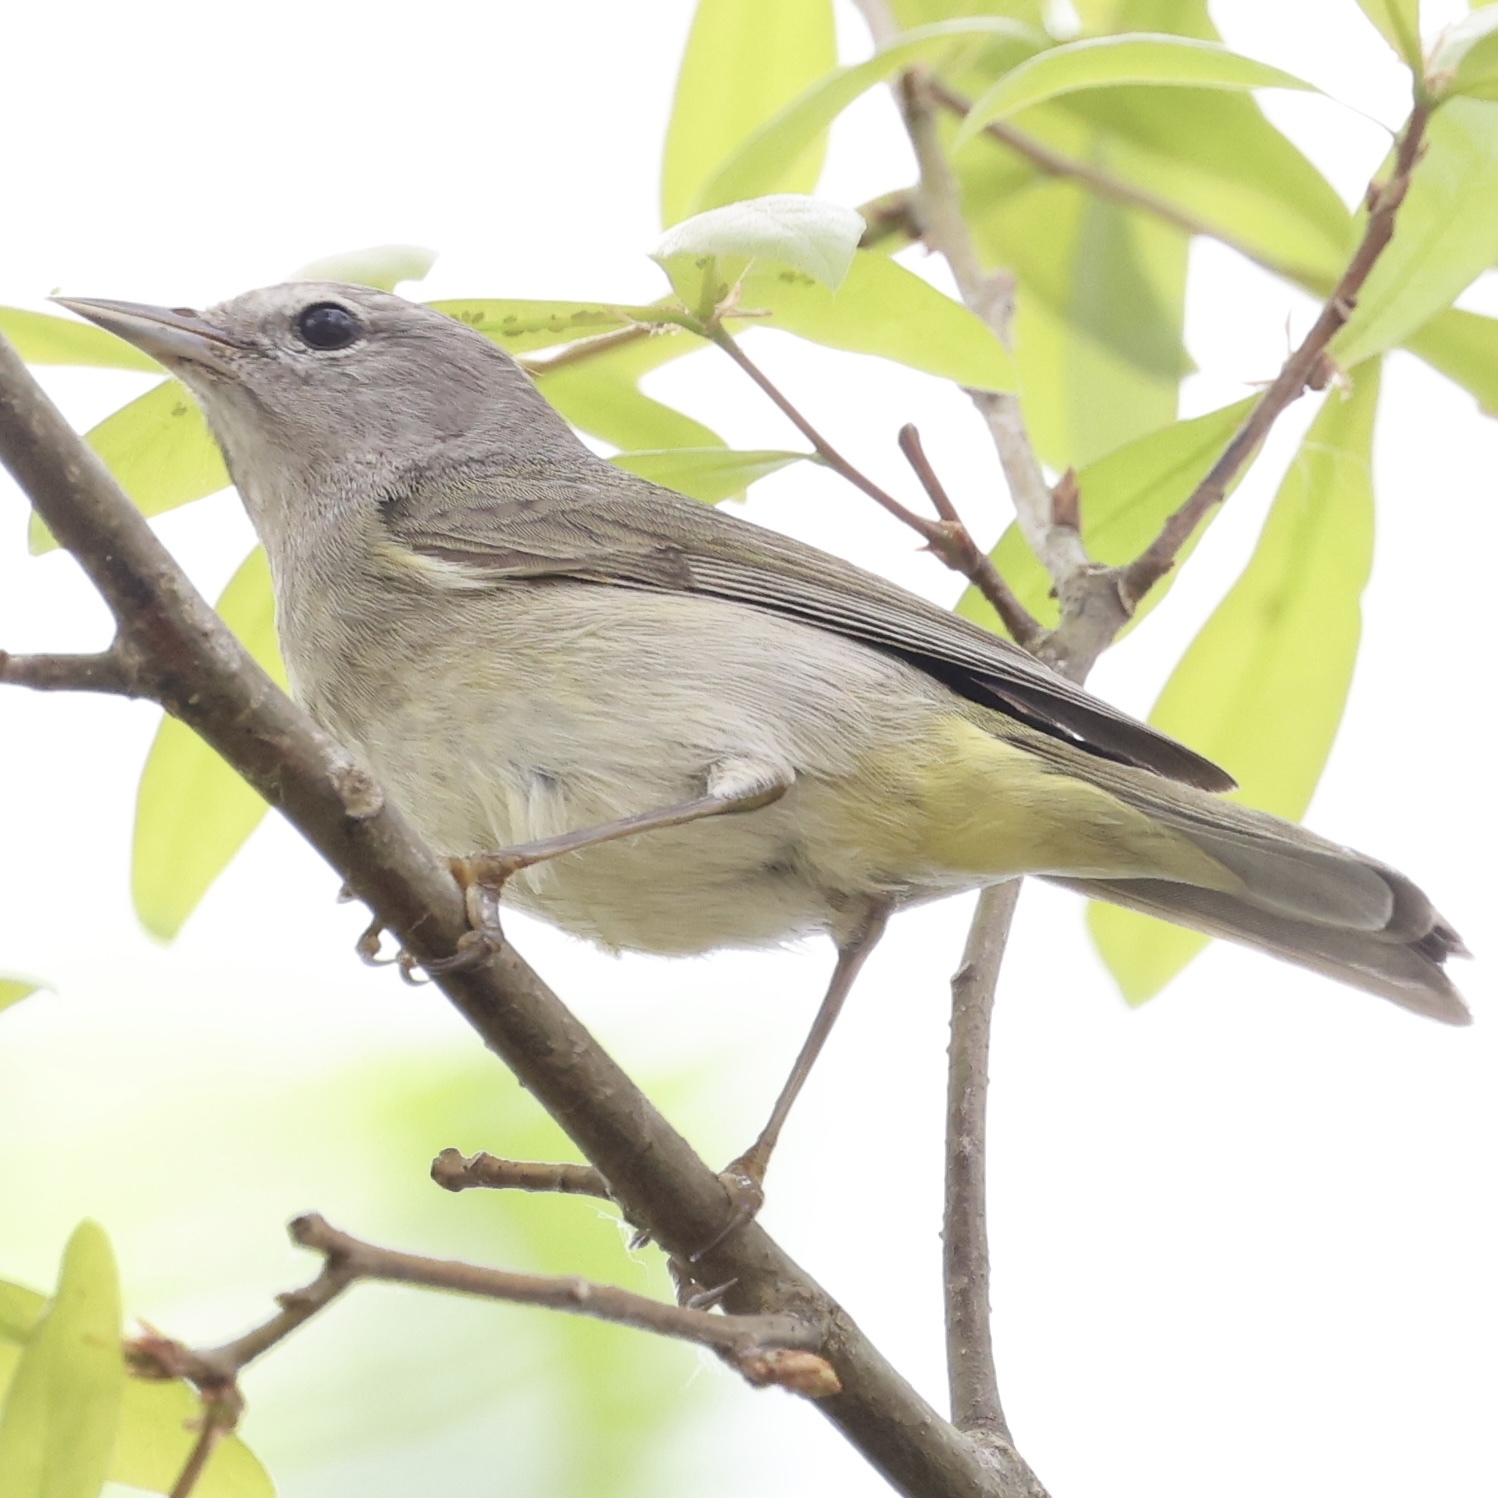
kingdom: Animalia
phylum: Chordata
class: Aves
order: Passeriformes
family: Parulidae
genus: Leiothlypis
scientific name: Leiothlypis celata
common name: Orange-crowned warbler
